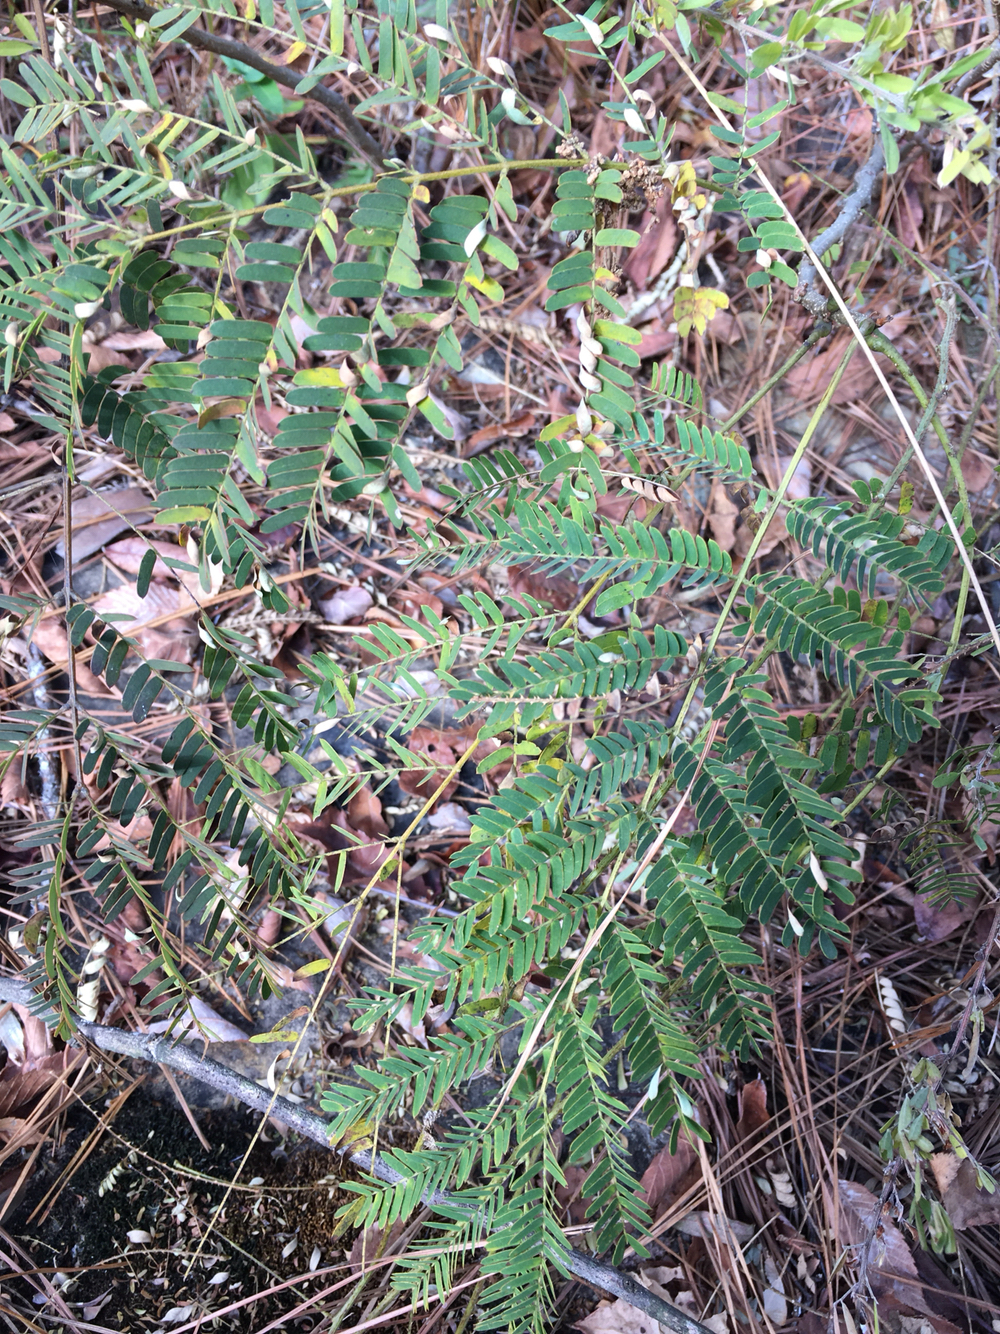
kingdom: Plantae
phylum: Tracheophyta
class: Magnoliopsida
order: Fabales
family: Fabaceae
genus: Albizia
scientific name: Albizia julibrissin
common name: Silktree
